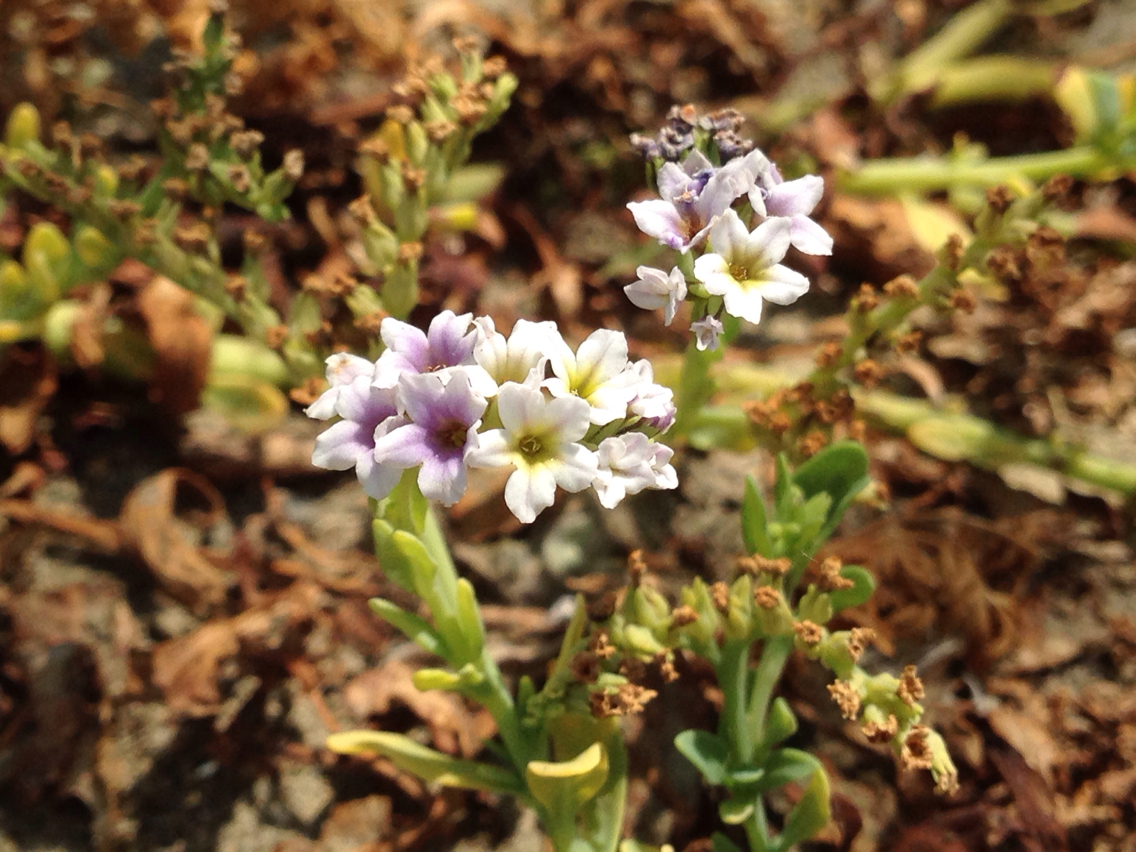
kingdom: Plantae
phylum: Tracheophyta
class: Magnoliopsida
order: Boraginales
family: Heliotropiaceae
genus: Heliotropium
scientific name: Heliotropium curassavicum
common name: Seaside heliotrope
